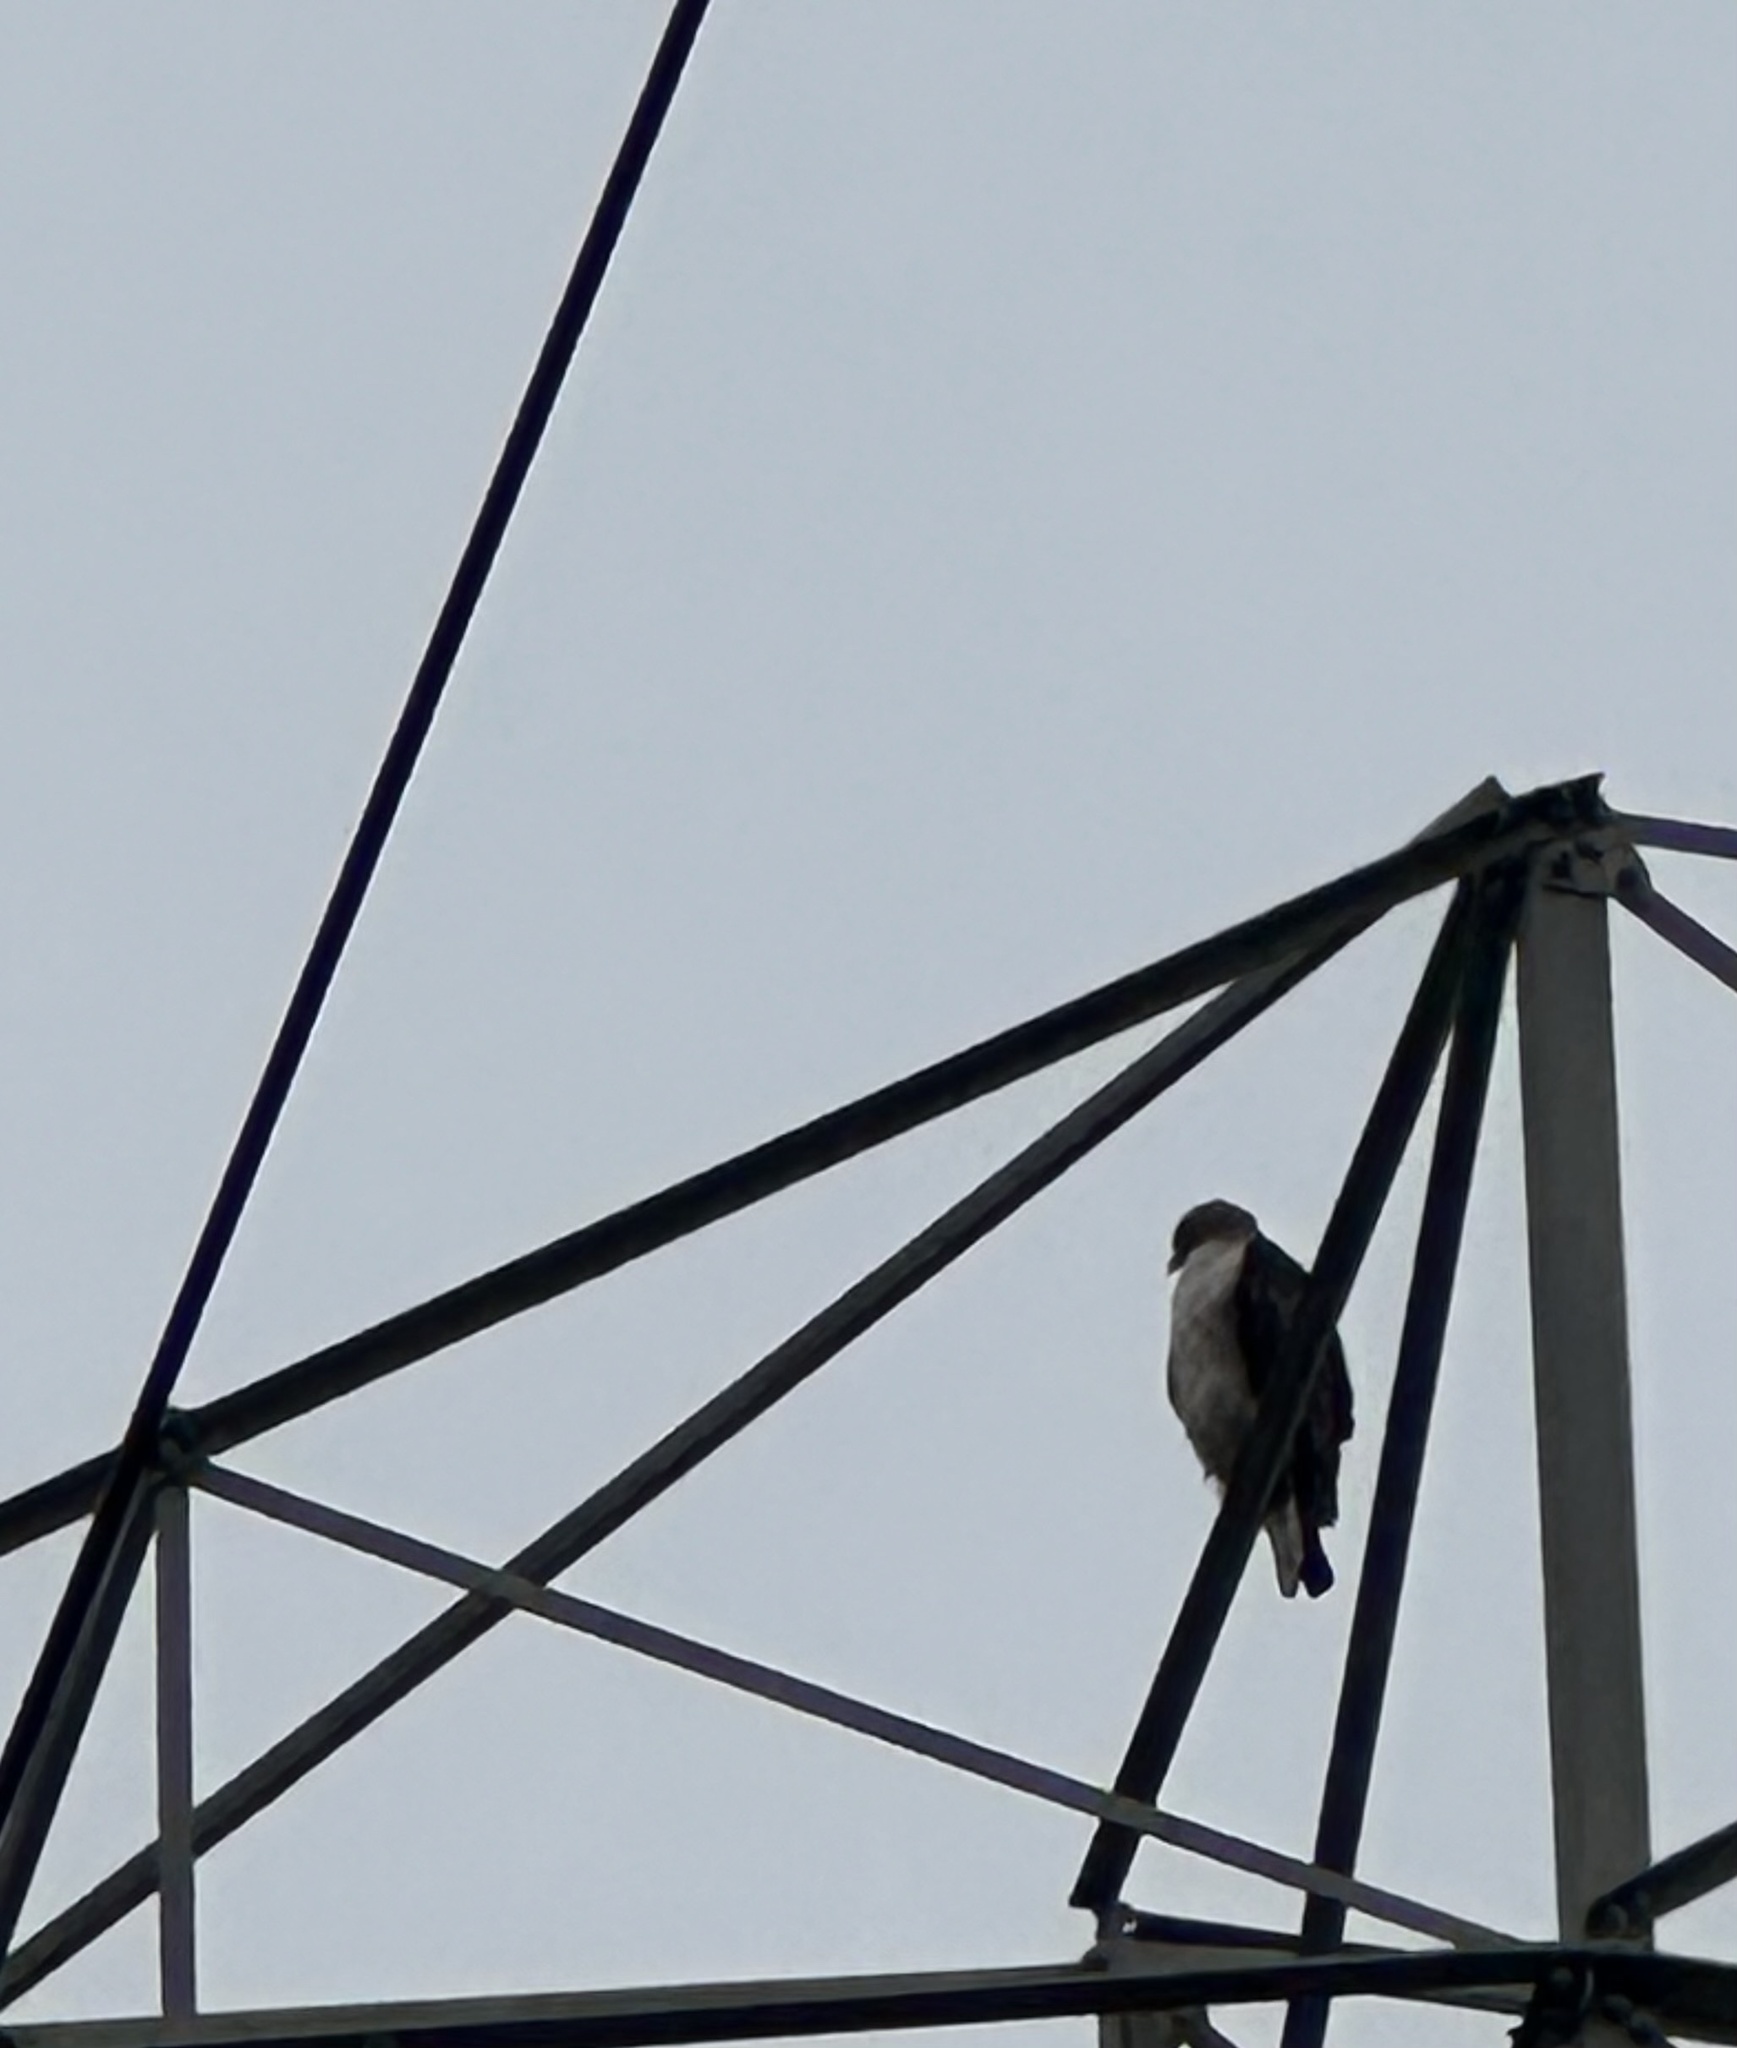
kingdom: Animalia
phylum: Chordata
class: Aves
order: Accipitriformes
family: Accipitridae
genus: Buteo
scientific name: Buteo jamaicensis
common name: Red-tailed hawk
